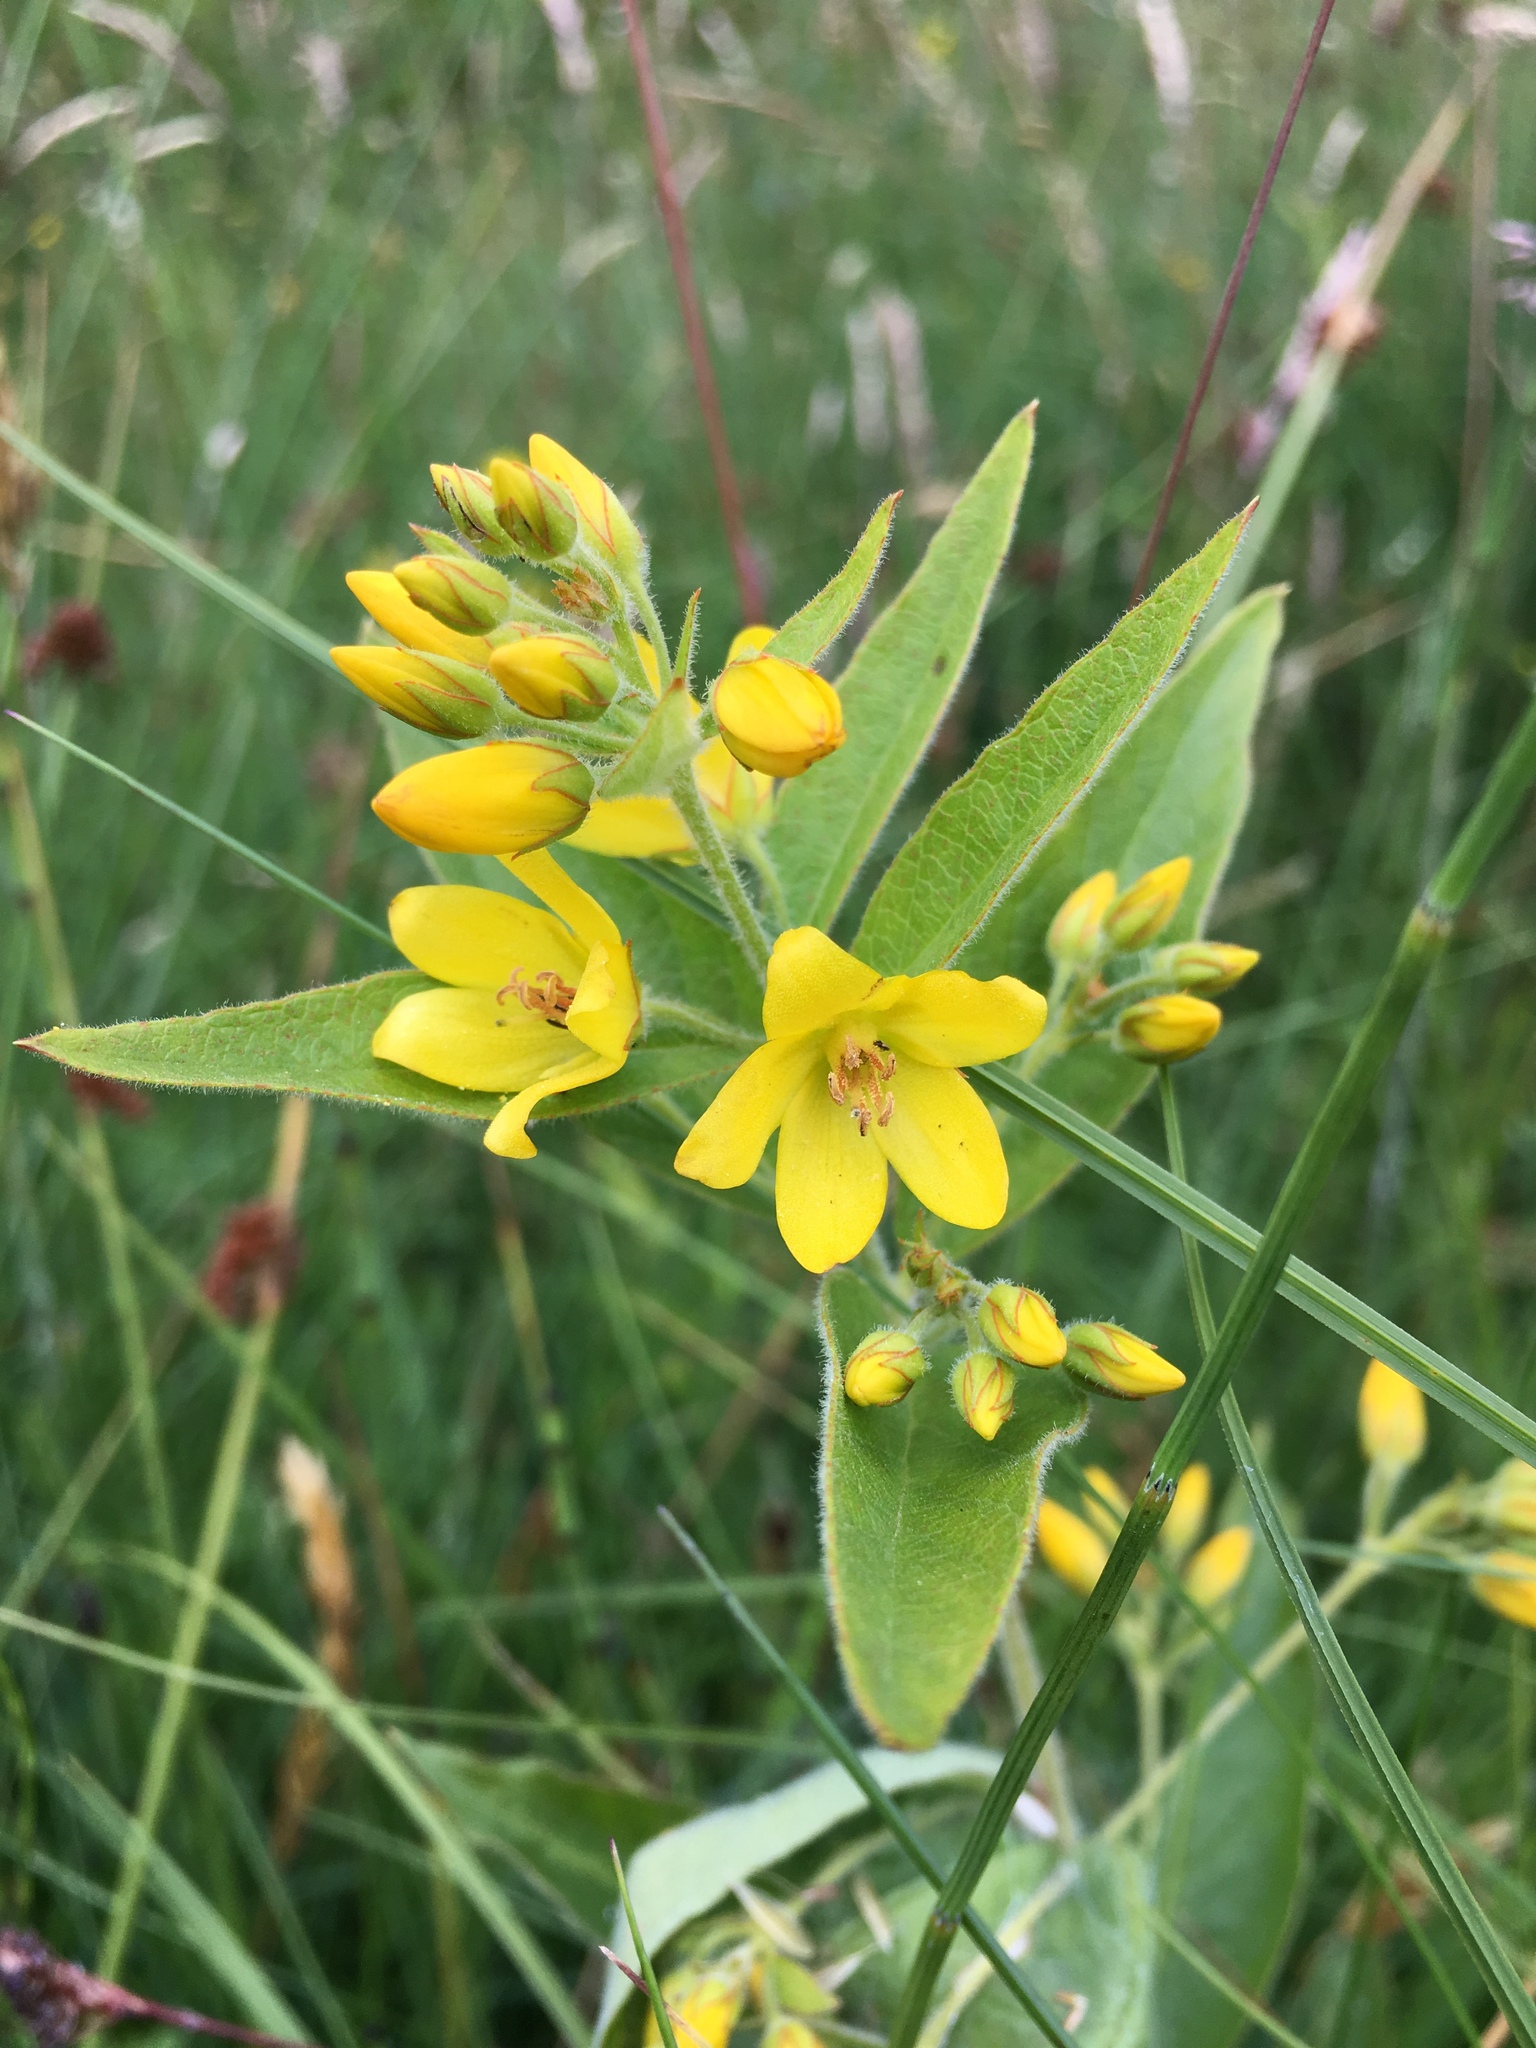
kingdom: Plantae
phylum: Tracheophyta
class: Magnoliopsida
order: Ericales
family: Primulaceae
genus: Lysimachia
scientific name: Lysimachia vulgaris
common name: Yellow loosestrife
